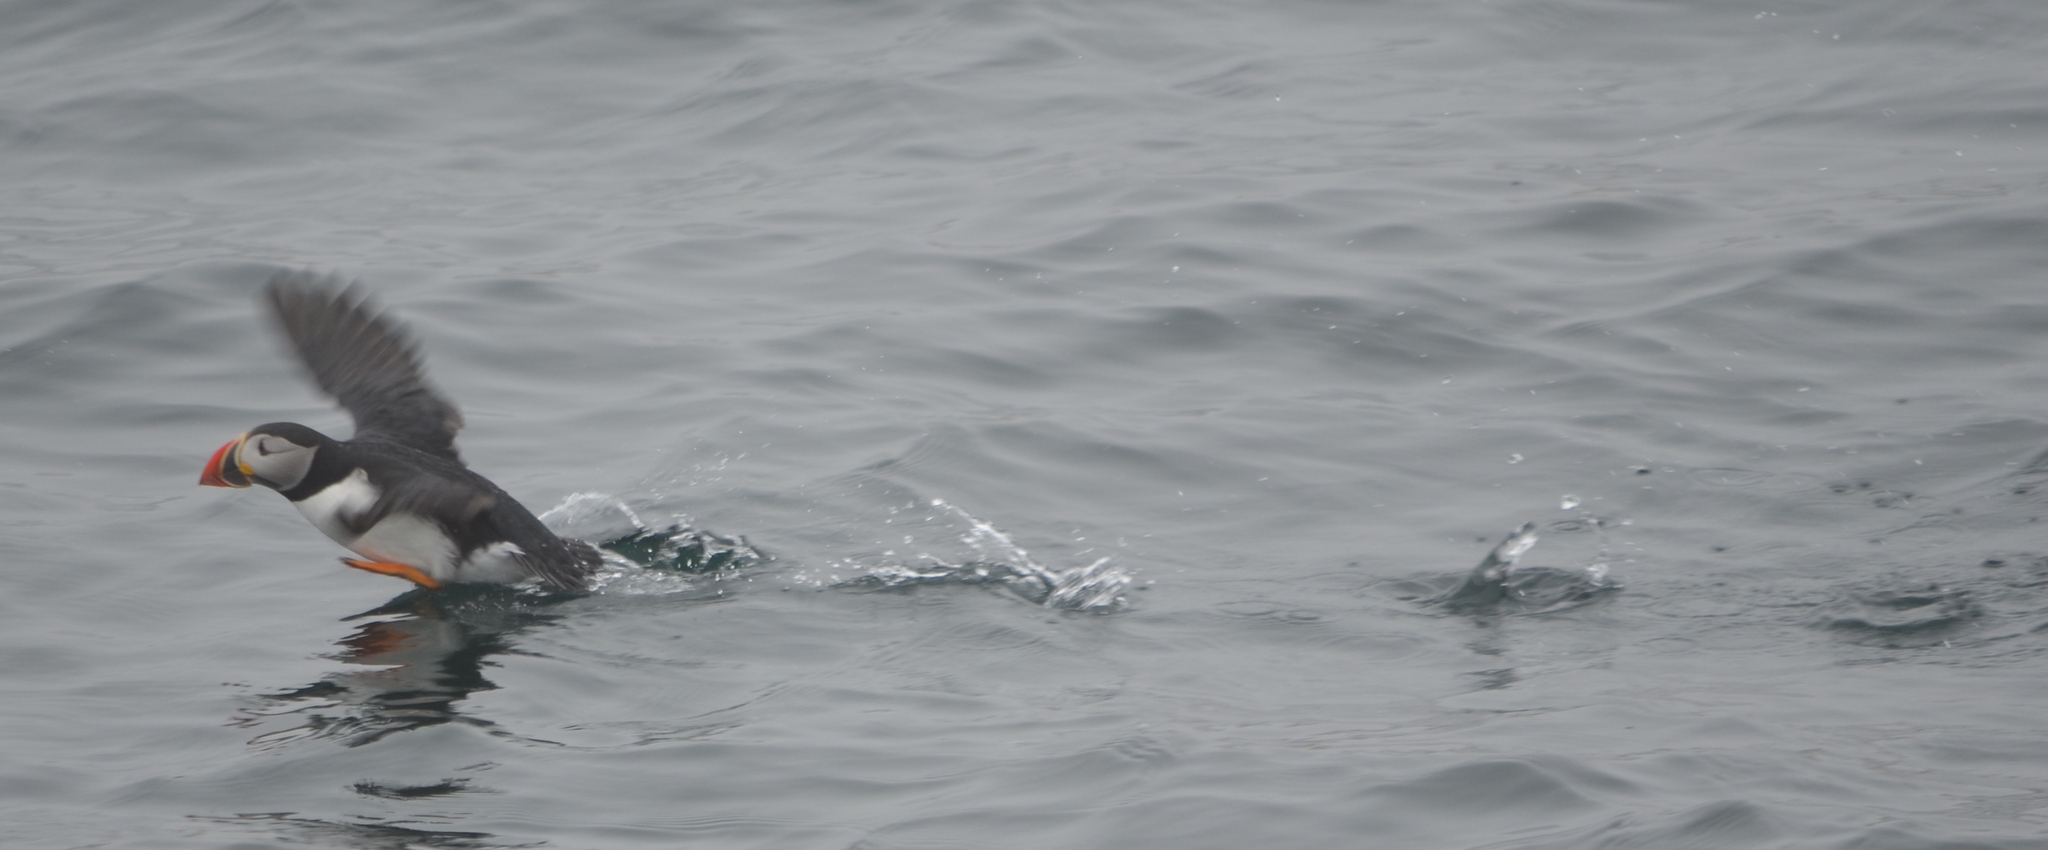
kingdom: Animalia
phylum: Chordata
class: Aves
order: Charadriiformes
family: Alcidae
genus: Fratercula
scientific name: Fratercula arctica
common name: Atlantic puffin
